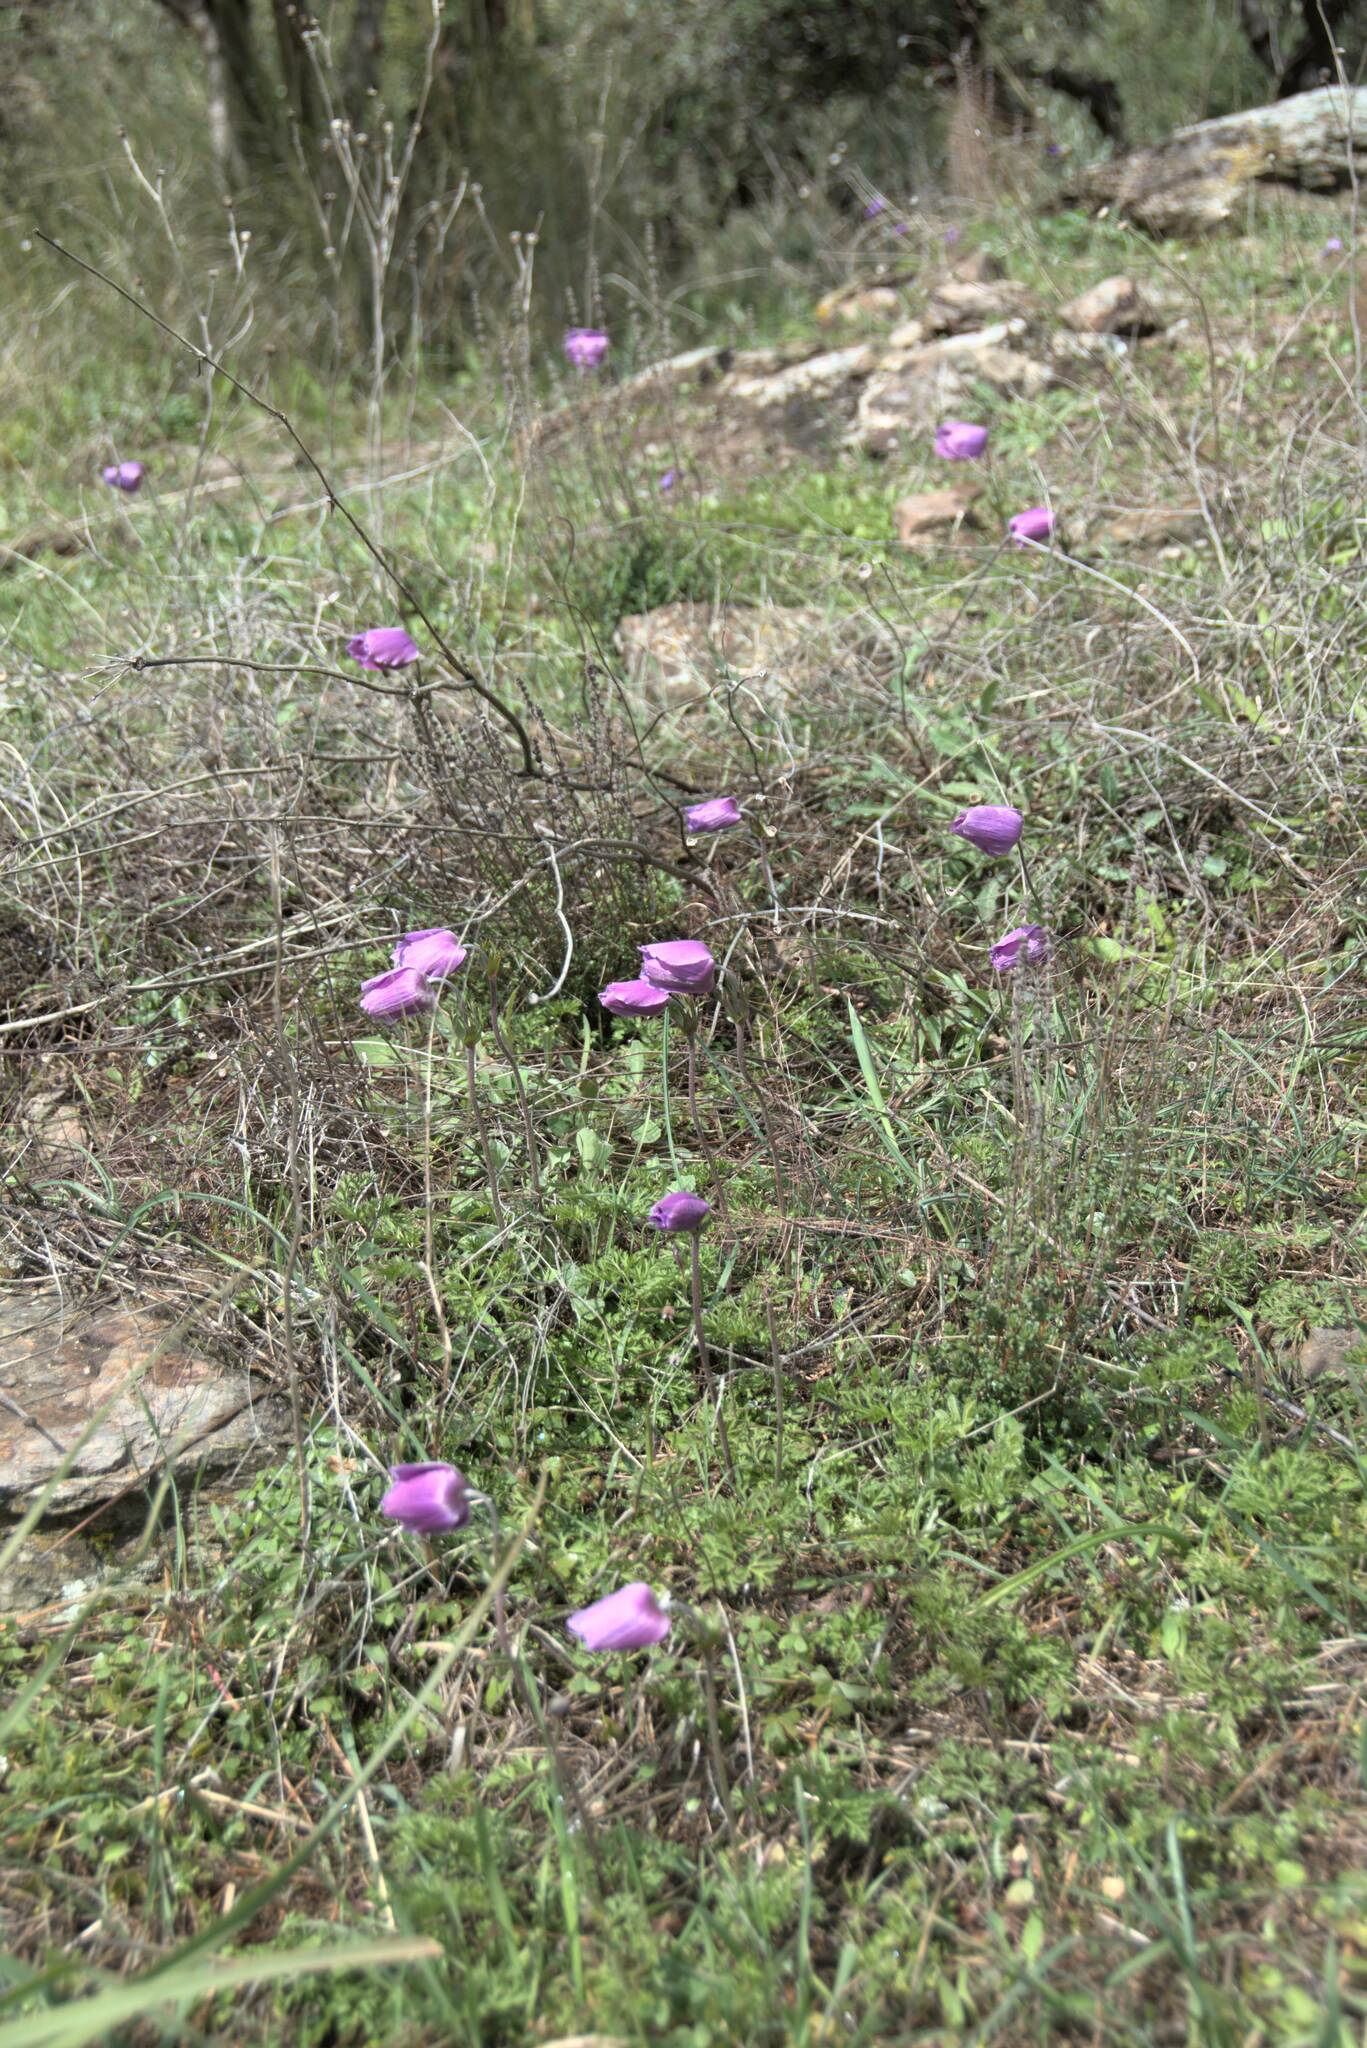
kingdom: Plantae
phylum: Tracheophyta
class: Magnoliopsida
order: Ranunculales
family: Ranunculaceae
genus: Anemone
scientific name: Anemone coronaria
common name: Poppy anemone
